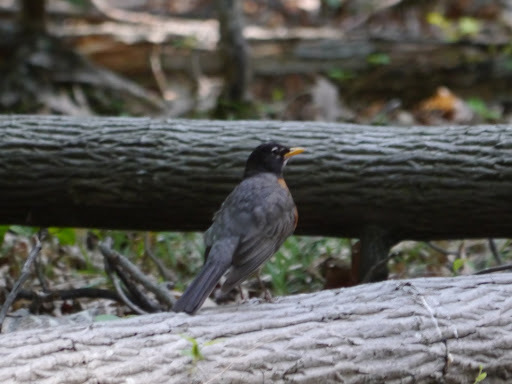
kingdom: Animalia
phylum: Chordata
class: Aves
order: Passeriformes
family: Turdidae
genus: Turdus
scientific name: Turdus migratorius
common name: American robin
